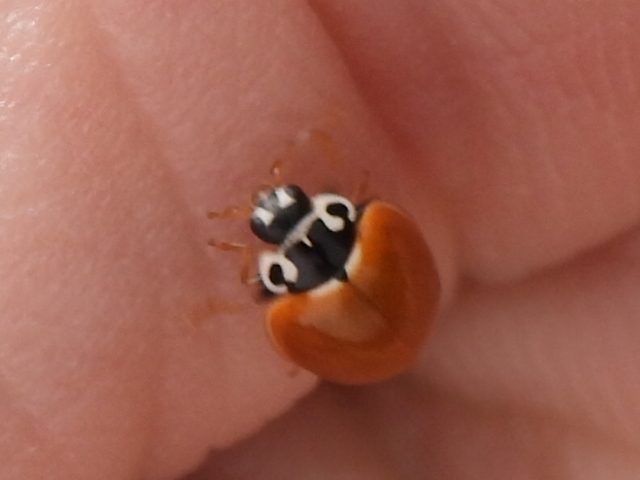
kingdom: Animalia
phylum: Arthropoda
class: Insecta
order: Coleoptera
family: Coccinellidae
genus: Cycloneda
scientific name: Cycloneda munda
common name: Polished lady beetle
